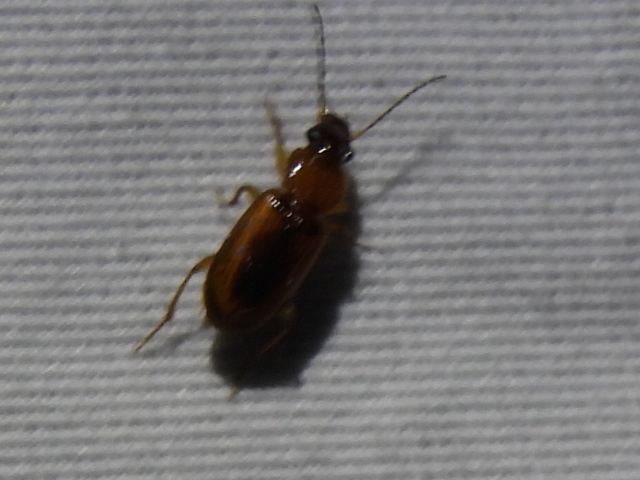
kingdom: Animalia
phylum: Arthropoda
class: Insecta
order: Coleoptera
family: Carabidae
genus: Stenolophus
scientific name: Stenolophus dissimilis
